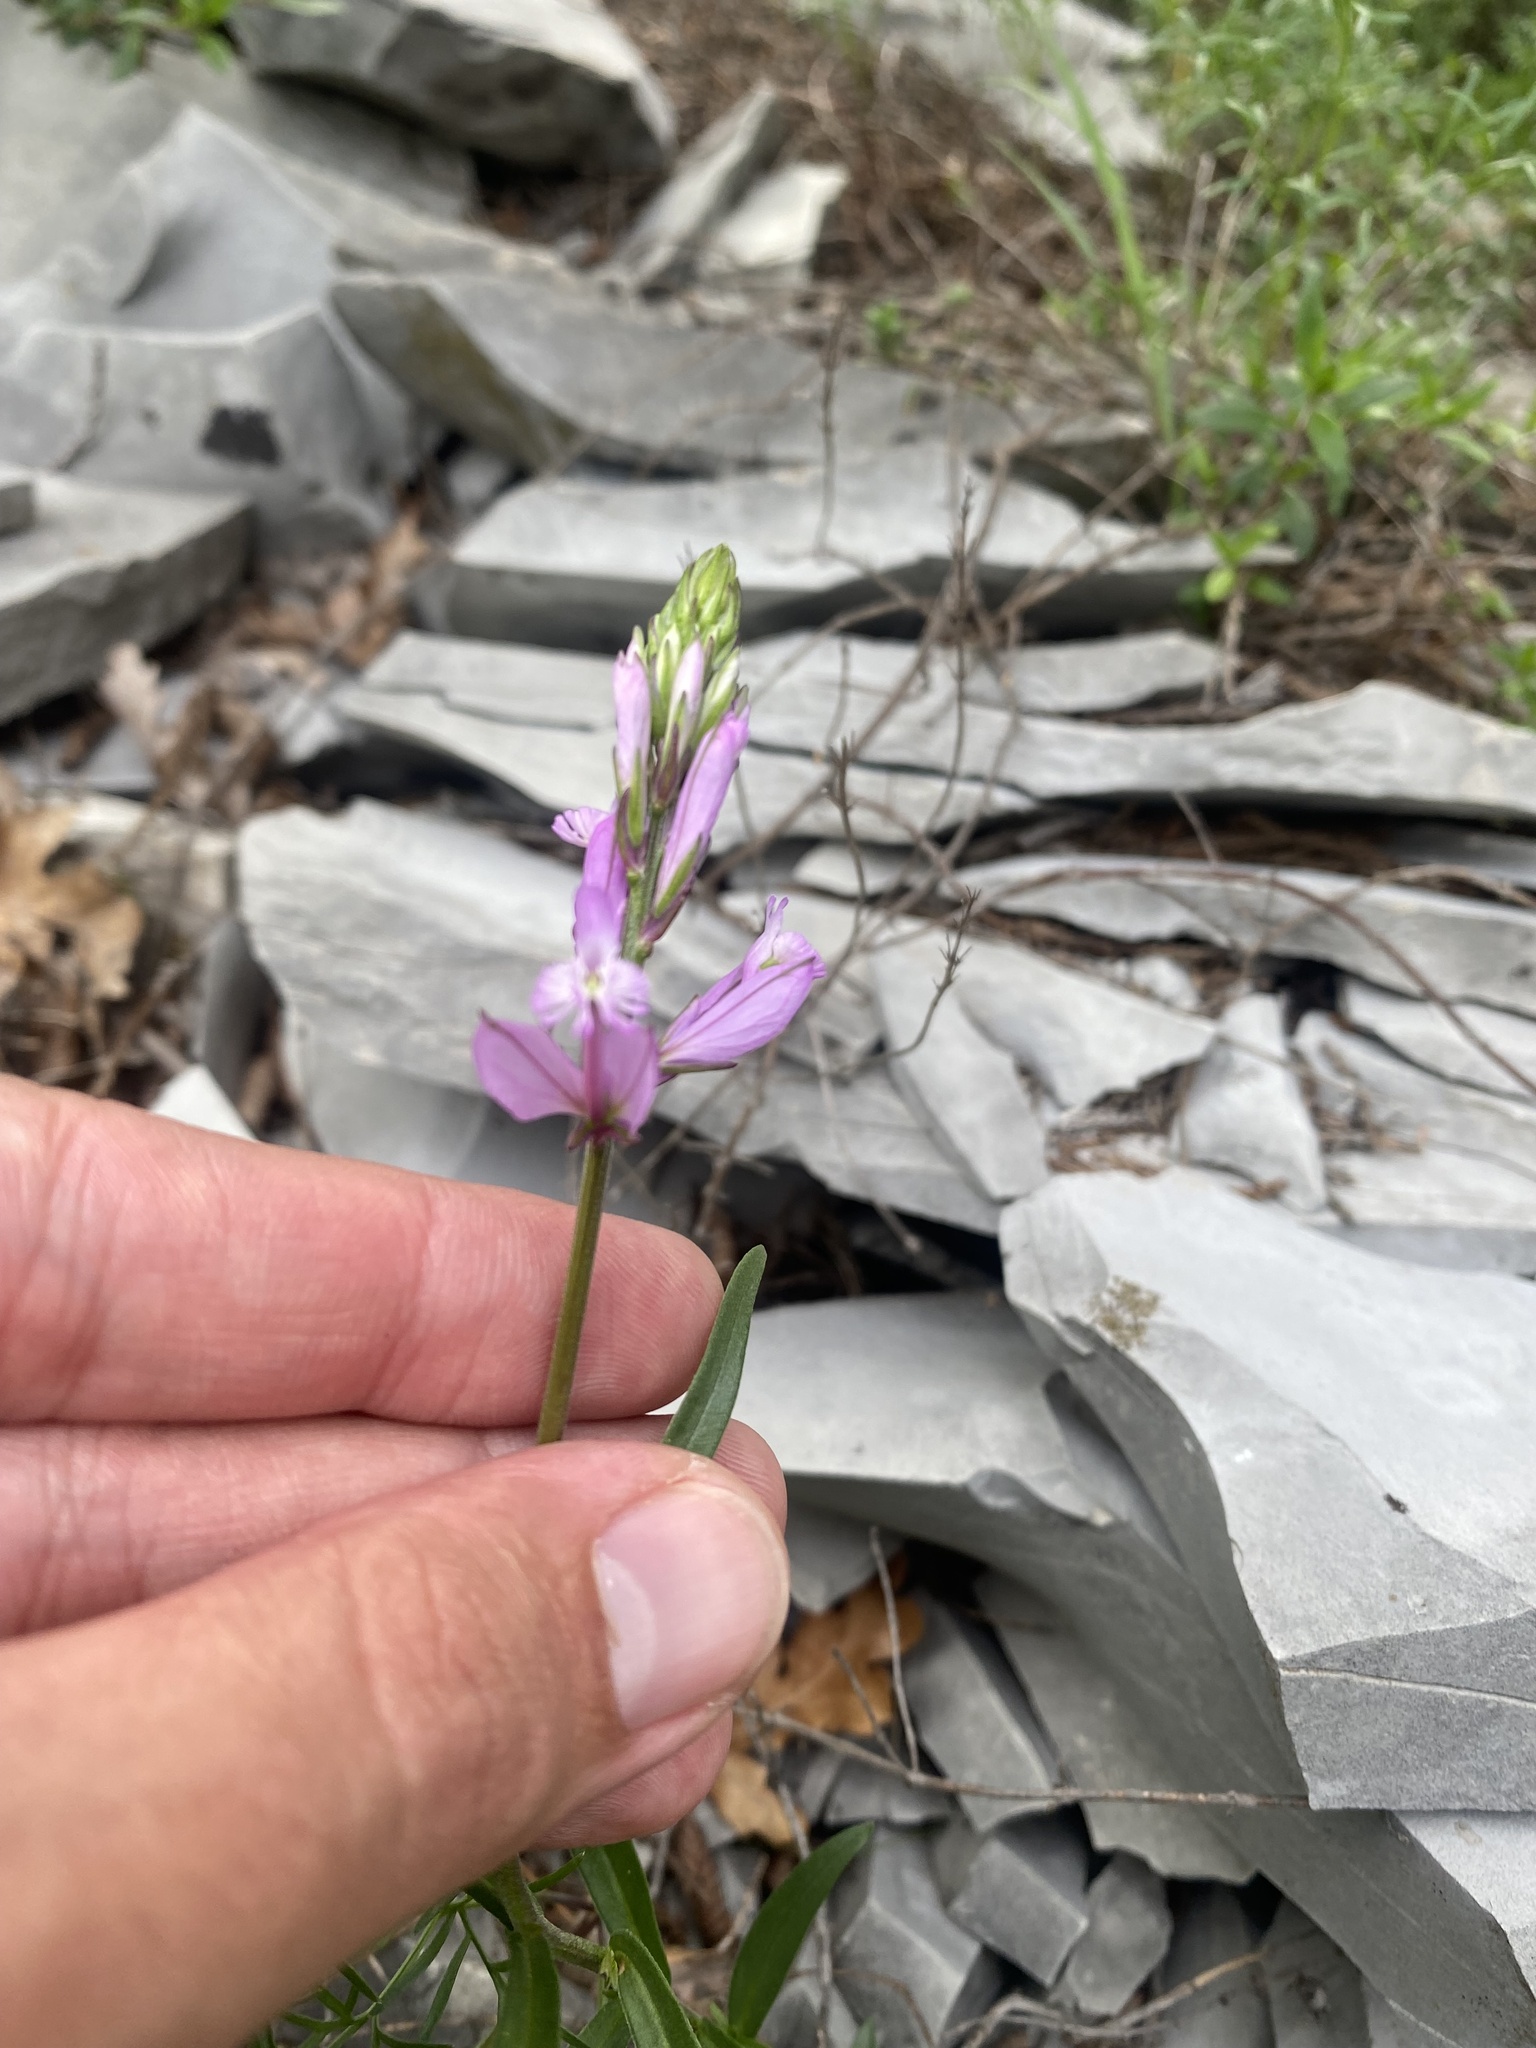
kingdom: Plantae
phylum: Tracheophyta
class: Magnoliopsida
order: Fabales
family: Polygalaceae
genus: Polygala
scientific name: Polygala major
